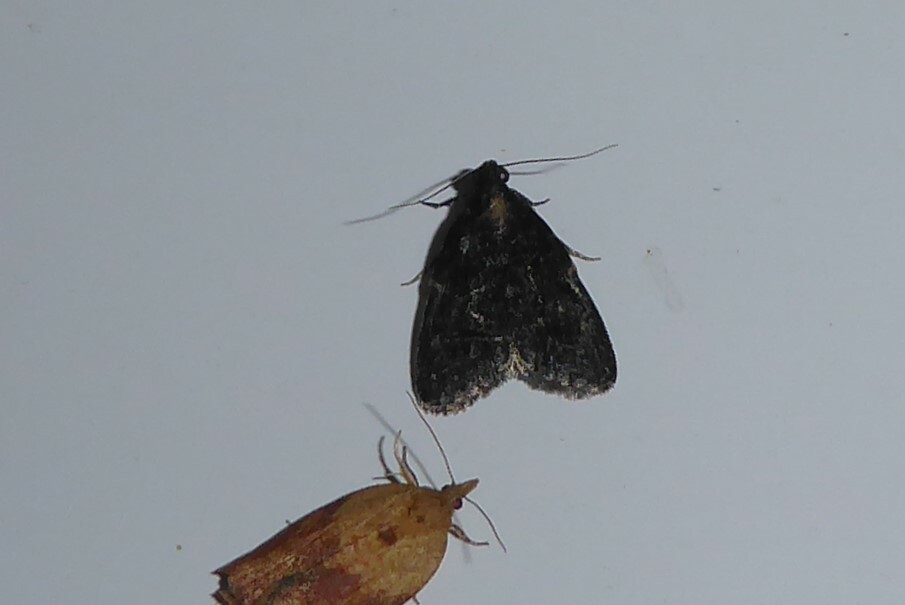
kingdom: Animalia
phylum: Arthropoda
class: Insecta
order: Lepidoptera
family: Pyralidae
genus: Stericta
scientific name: Stericta carbonalis
